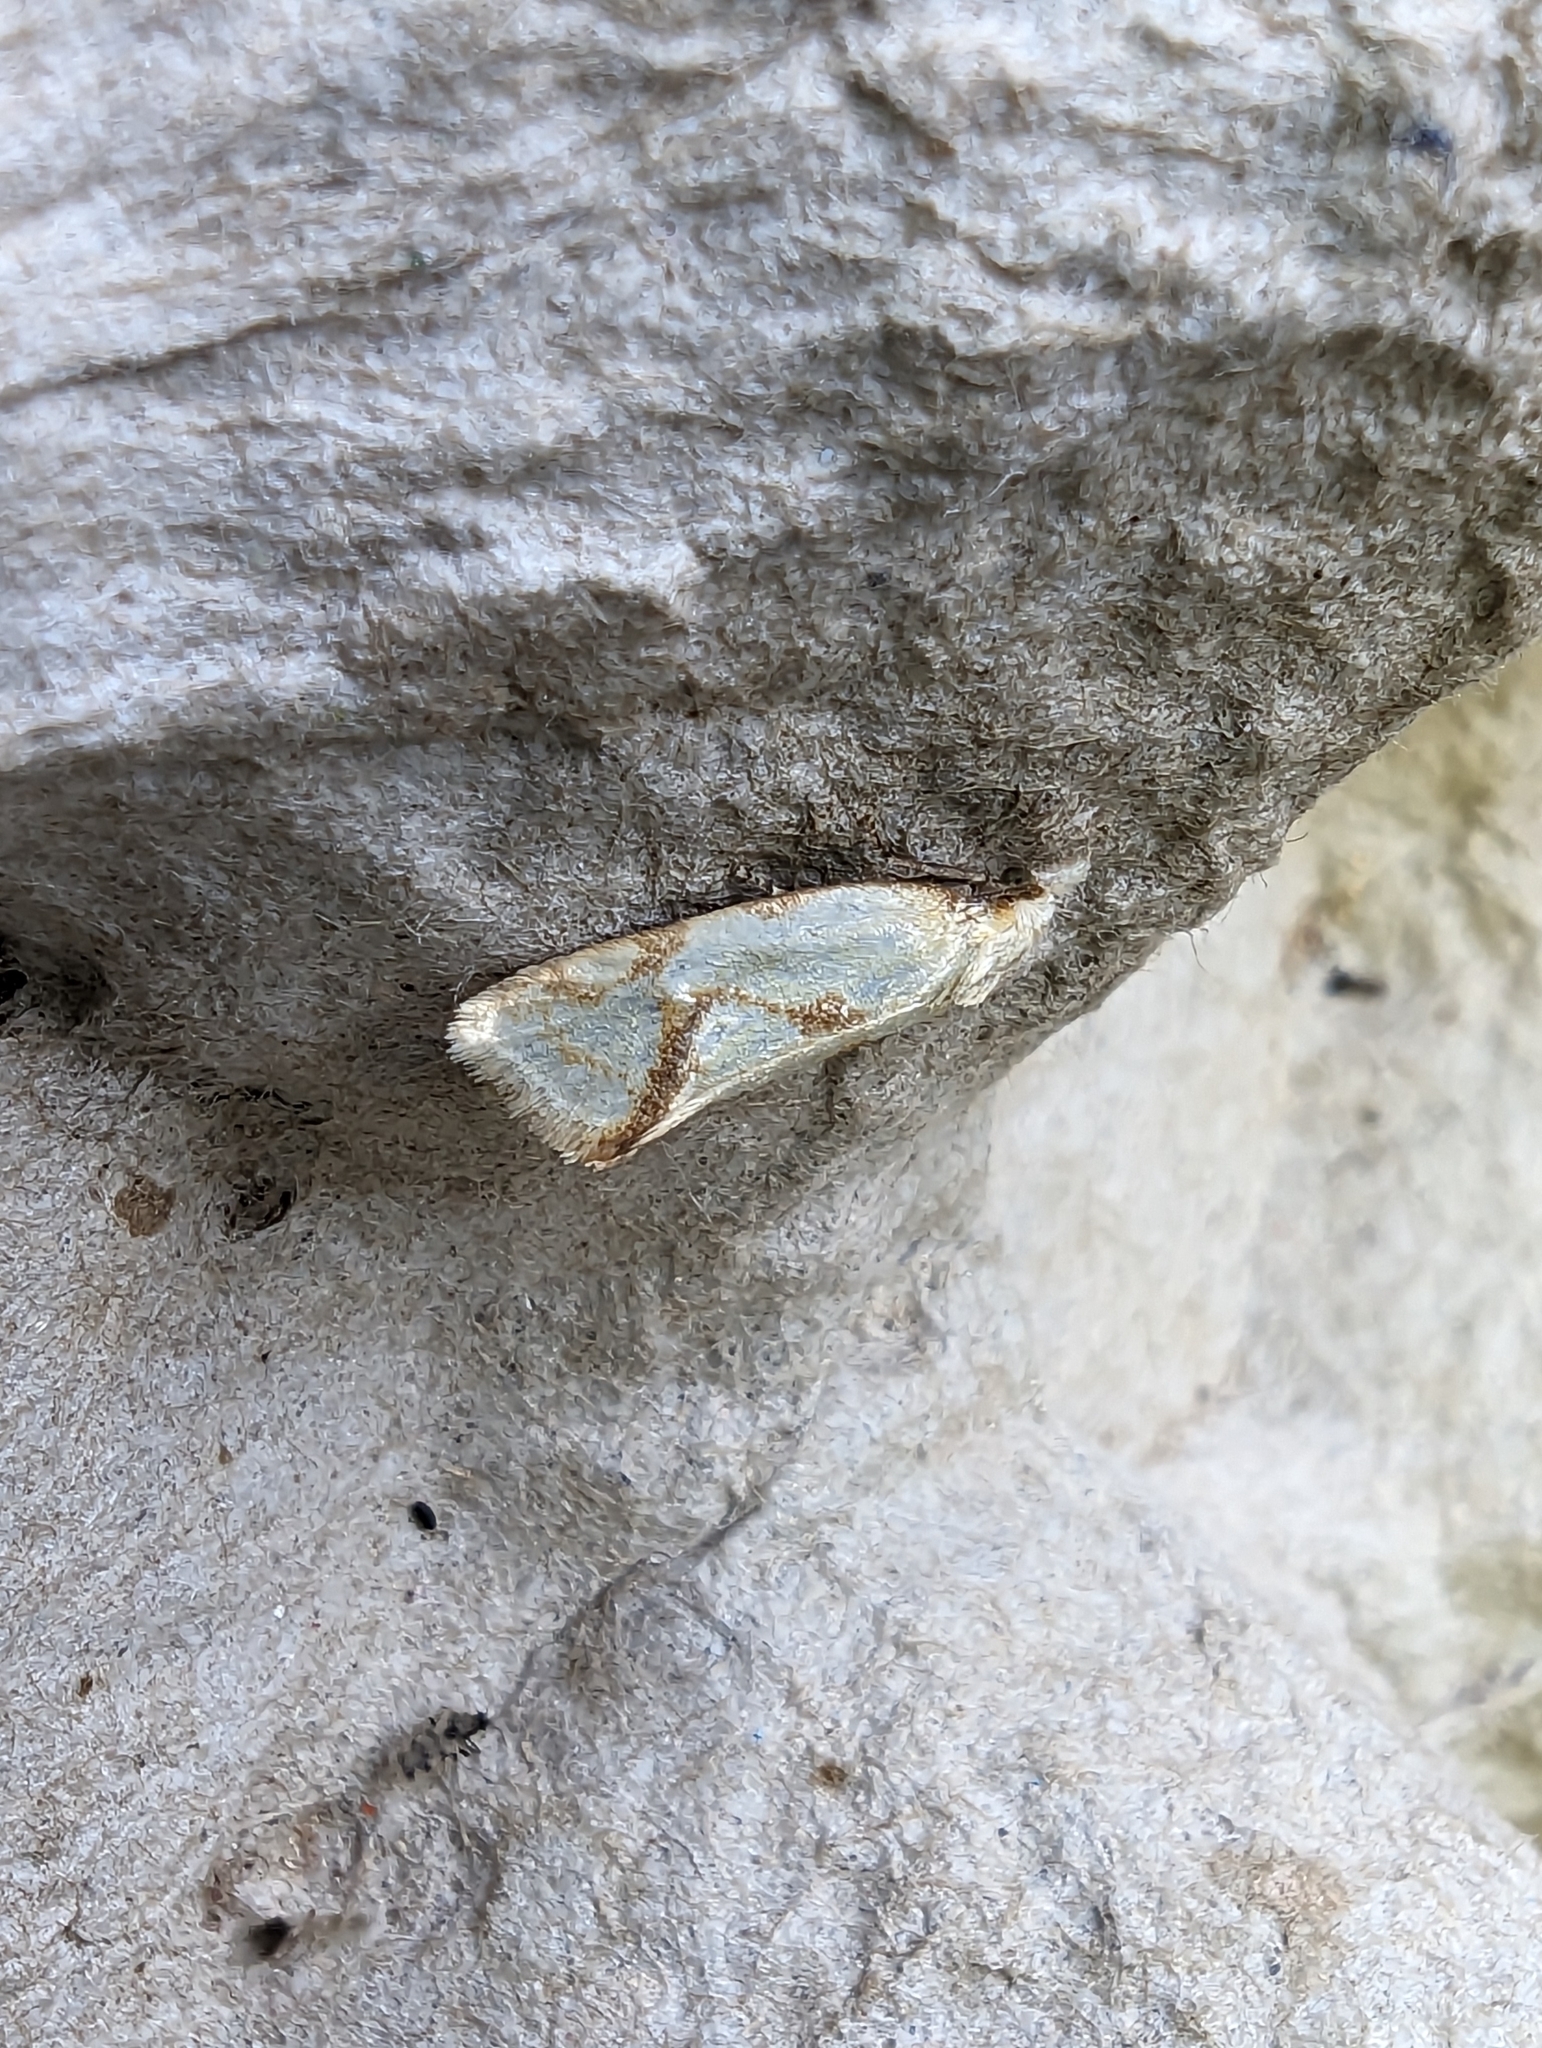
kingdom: Animalia
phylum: Arthropoda
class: Insecta
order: Lepidoptera
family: Tortricidae
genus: Agapeta
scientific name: Agapeta hamana
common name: Common yellow conch
